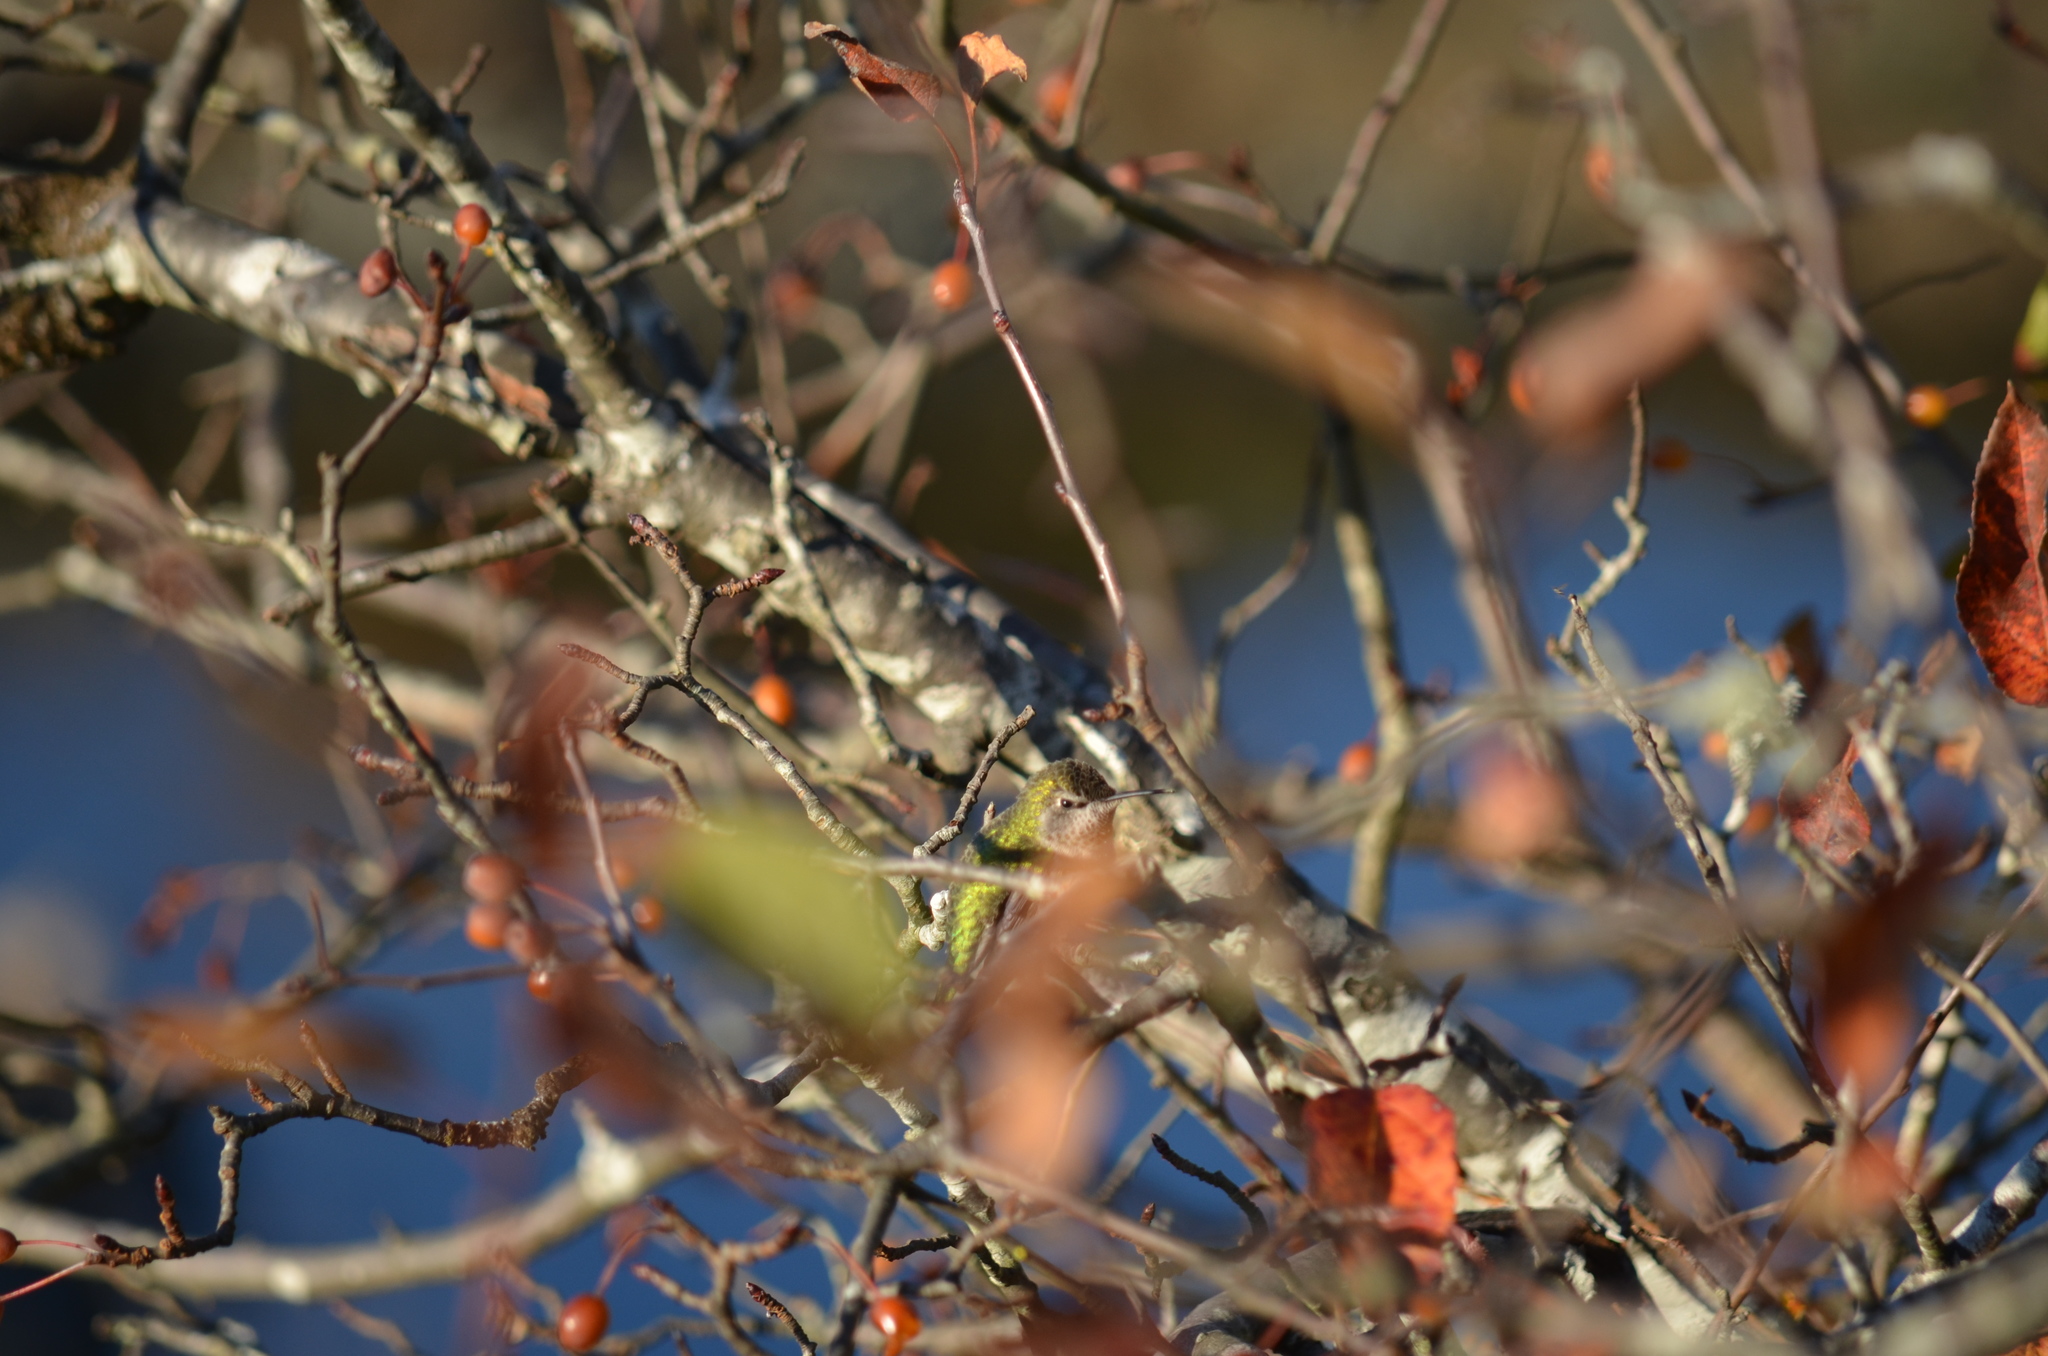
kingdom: Animalia
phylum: Chordata
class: Aves
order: Apodiformes
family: Trochilidae
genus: Calypte
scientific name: Calypte anna
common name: Anna's hummingbird
